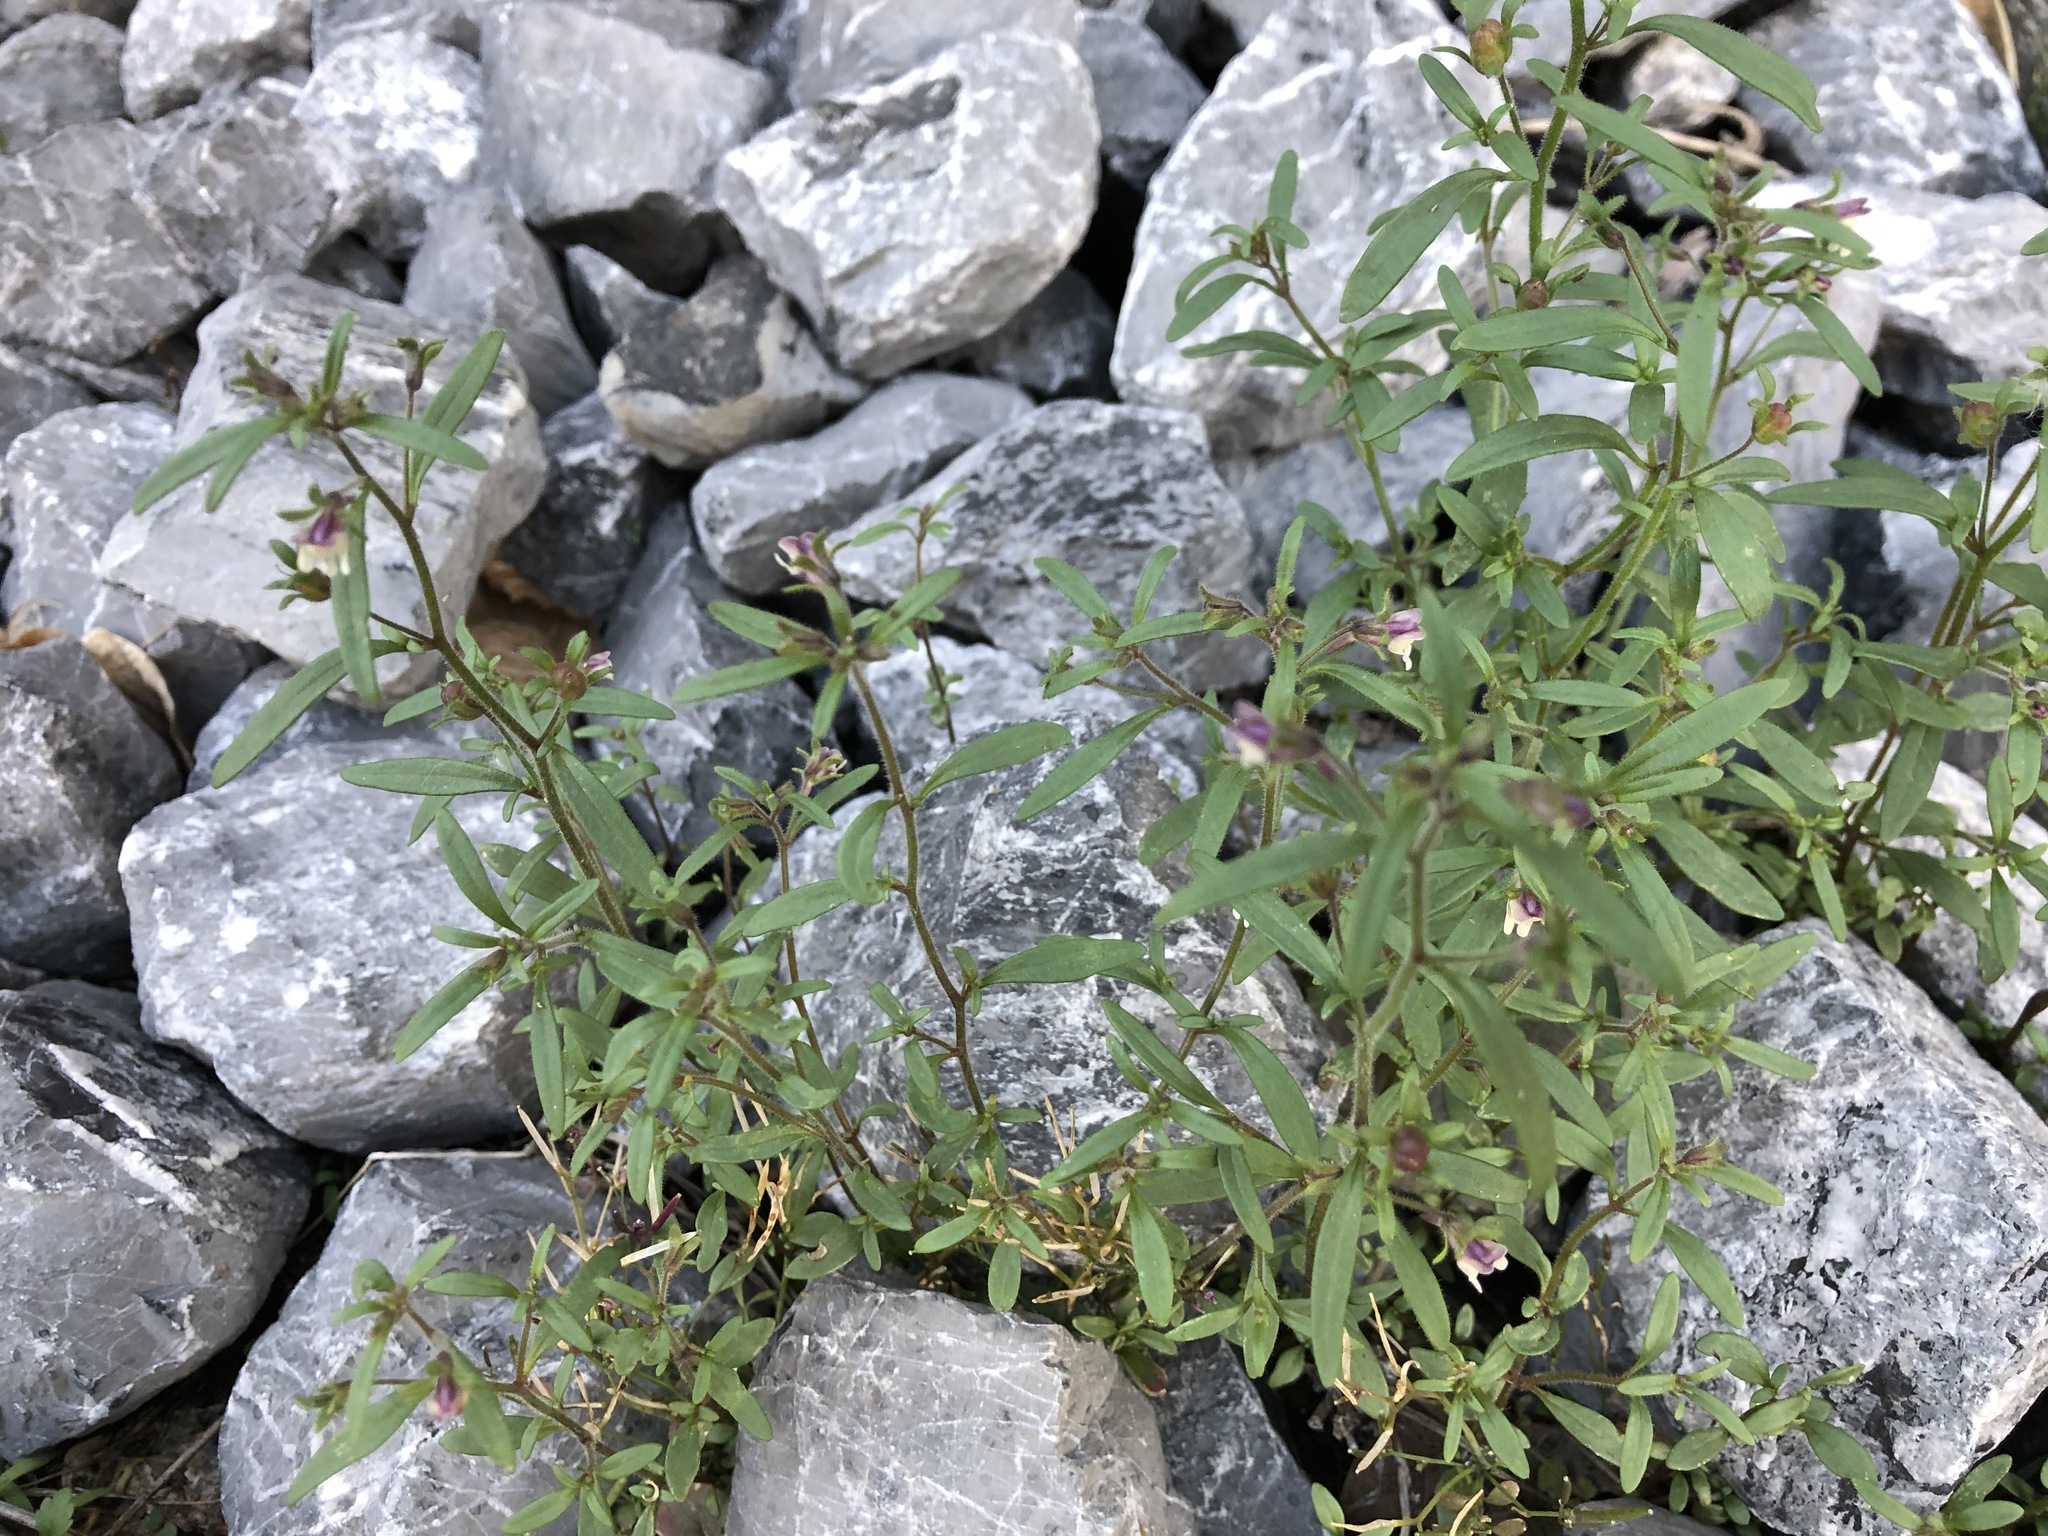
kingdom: Plantae
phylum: Tracheophyta
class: Magnoliopsida
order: Lamiales
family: Plantaginaceae
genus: Chaenorhinum
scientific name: Chaenorhinum minus
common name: Dwarf snapdragon
